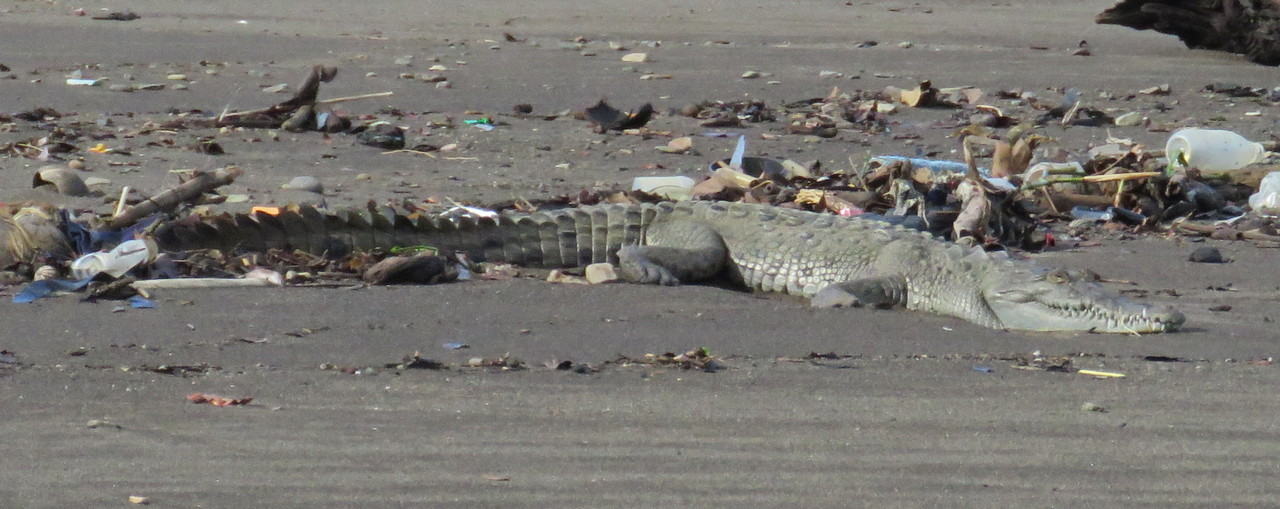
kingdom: Animalia
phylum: Chordata
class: Crocodylia
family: Crocodylidae
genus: Crocodylus
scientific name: Crocodylus acutus
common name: American crocodile
